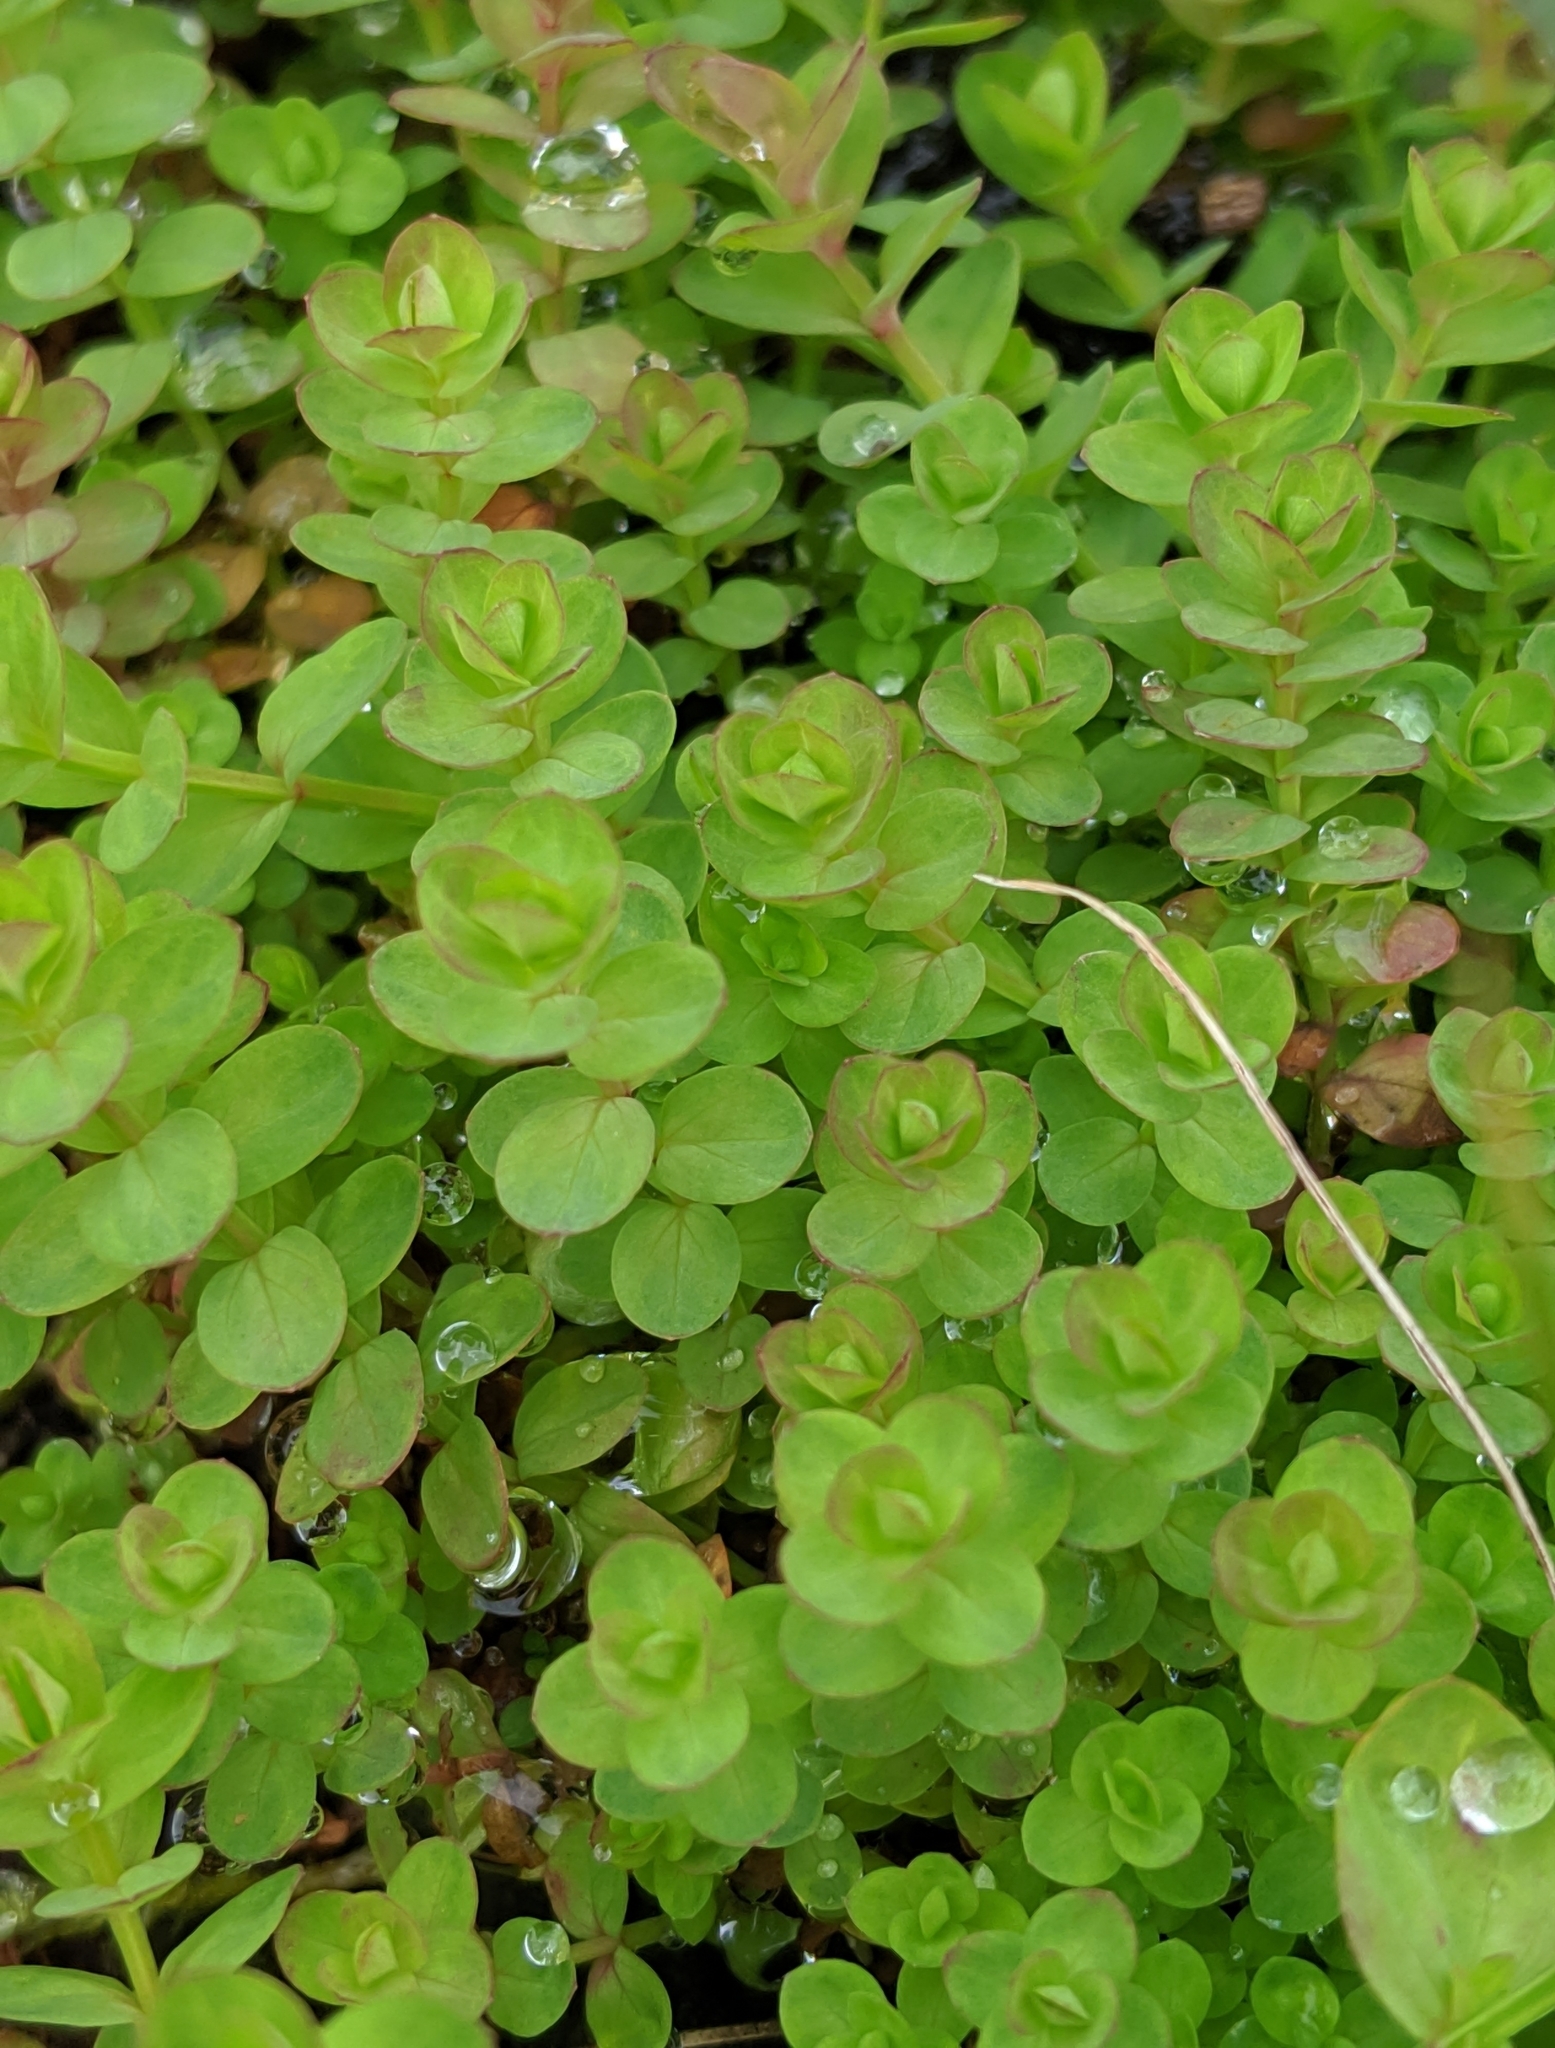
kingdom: Plantae
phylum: Tracheophyta
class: Magnoliopsida
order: Malpighiales
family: Hypericaceae
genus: Hypericum
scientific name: Hypericum anagalloides
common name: Bog st. john's-wort
